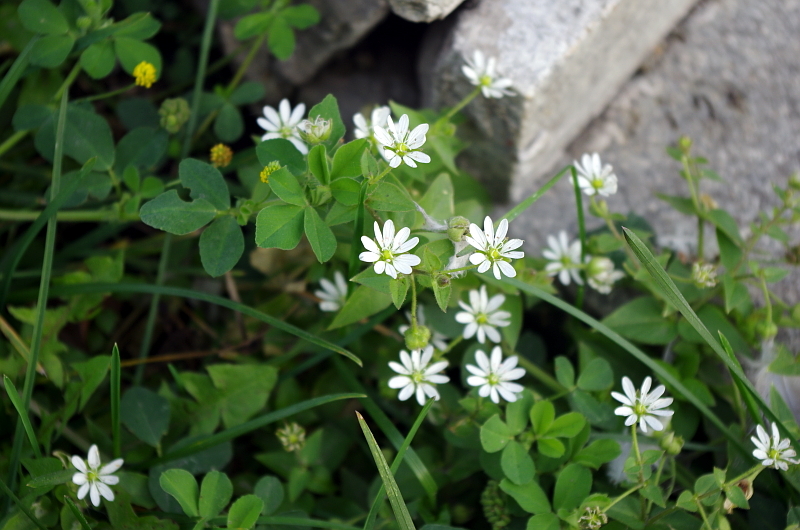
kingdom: Plantae
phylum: Tracheophyta
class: Magnoliopsida
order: Caryophyllales
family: Caryophyllaceae
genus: Stellaria
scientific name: Stellaria aquatica
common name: Water chickweed
